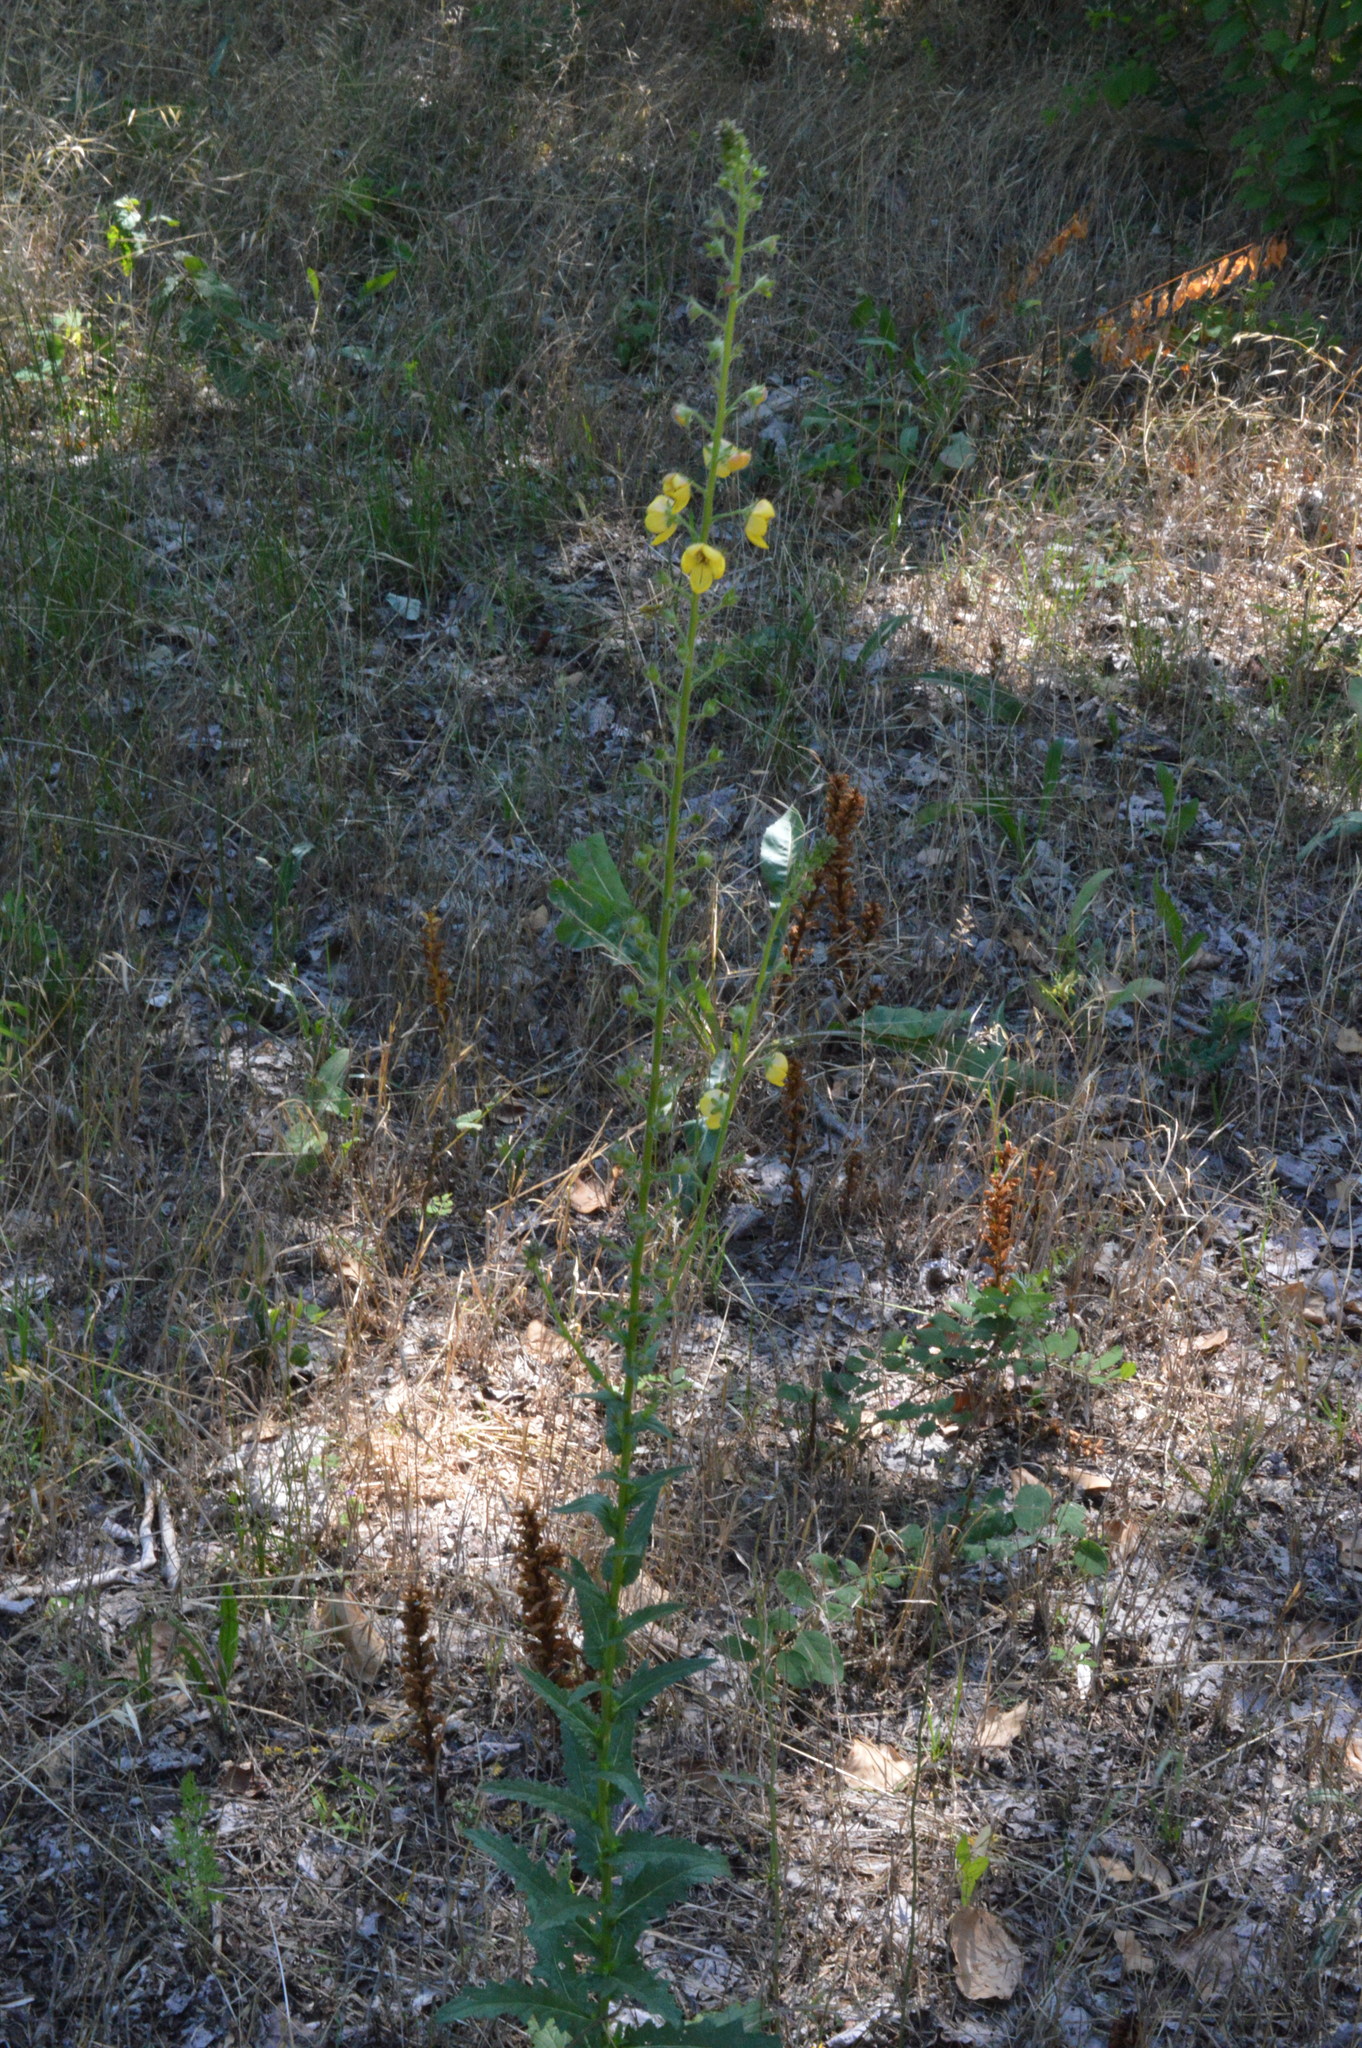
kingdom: Plantae
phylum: Tracheophyta
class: Magnoliopsida
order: Lamiales
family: Scrophulariaceae
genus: Verbascum
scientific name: Verbascum blattaria
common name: Moth mullein
